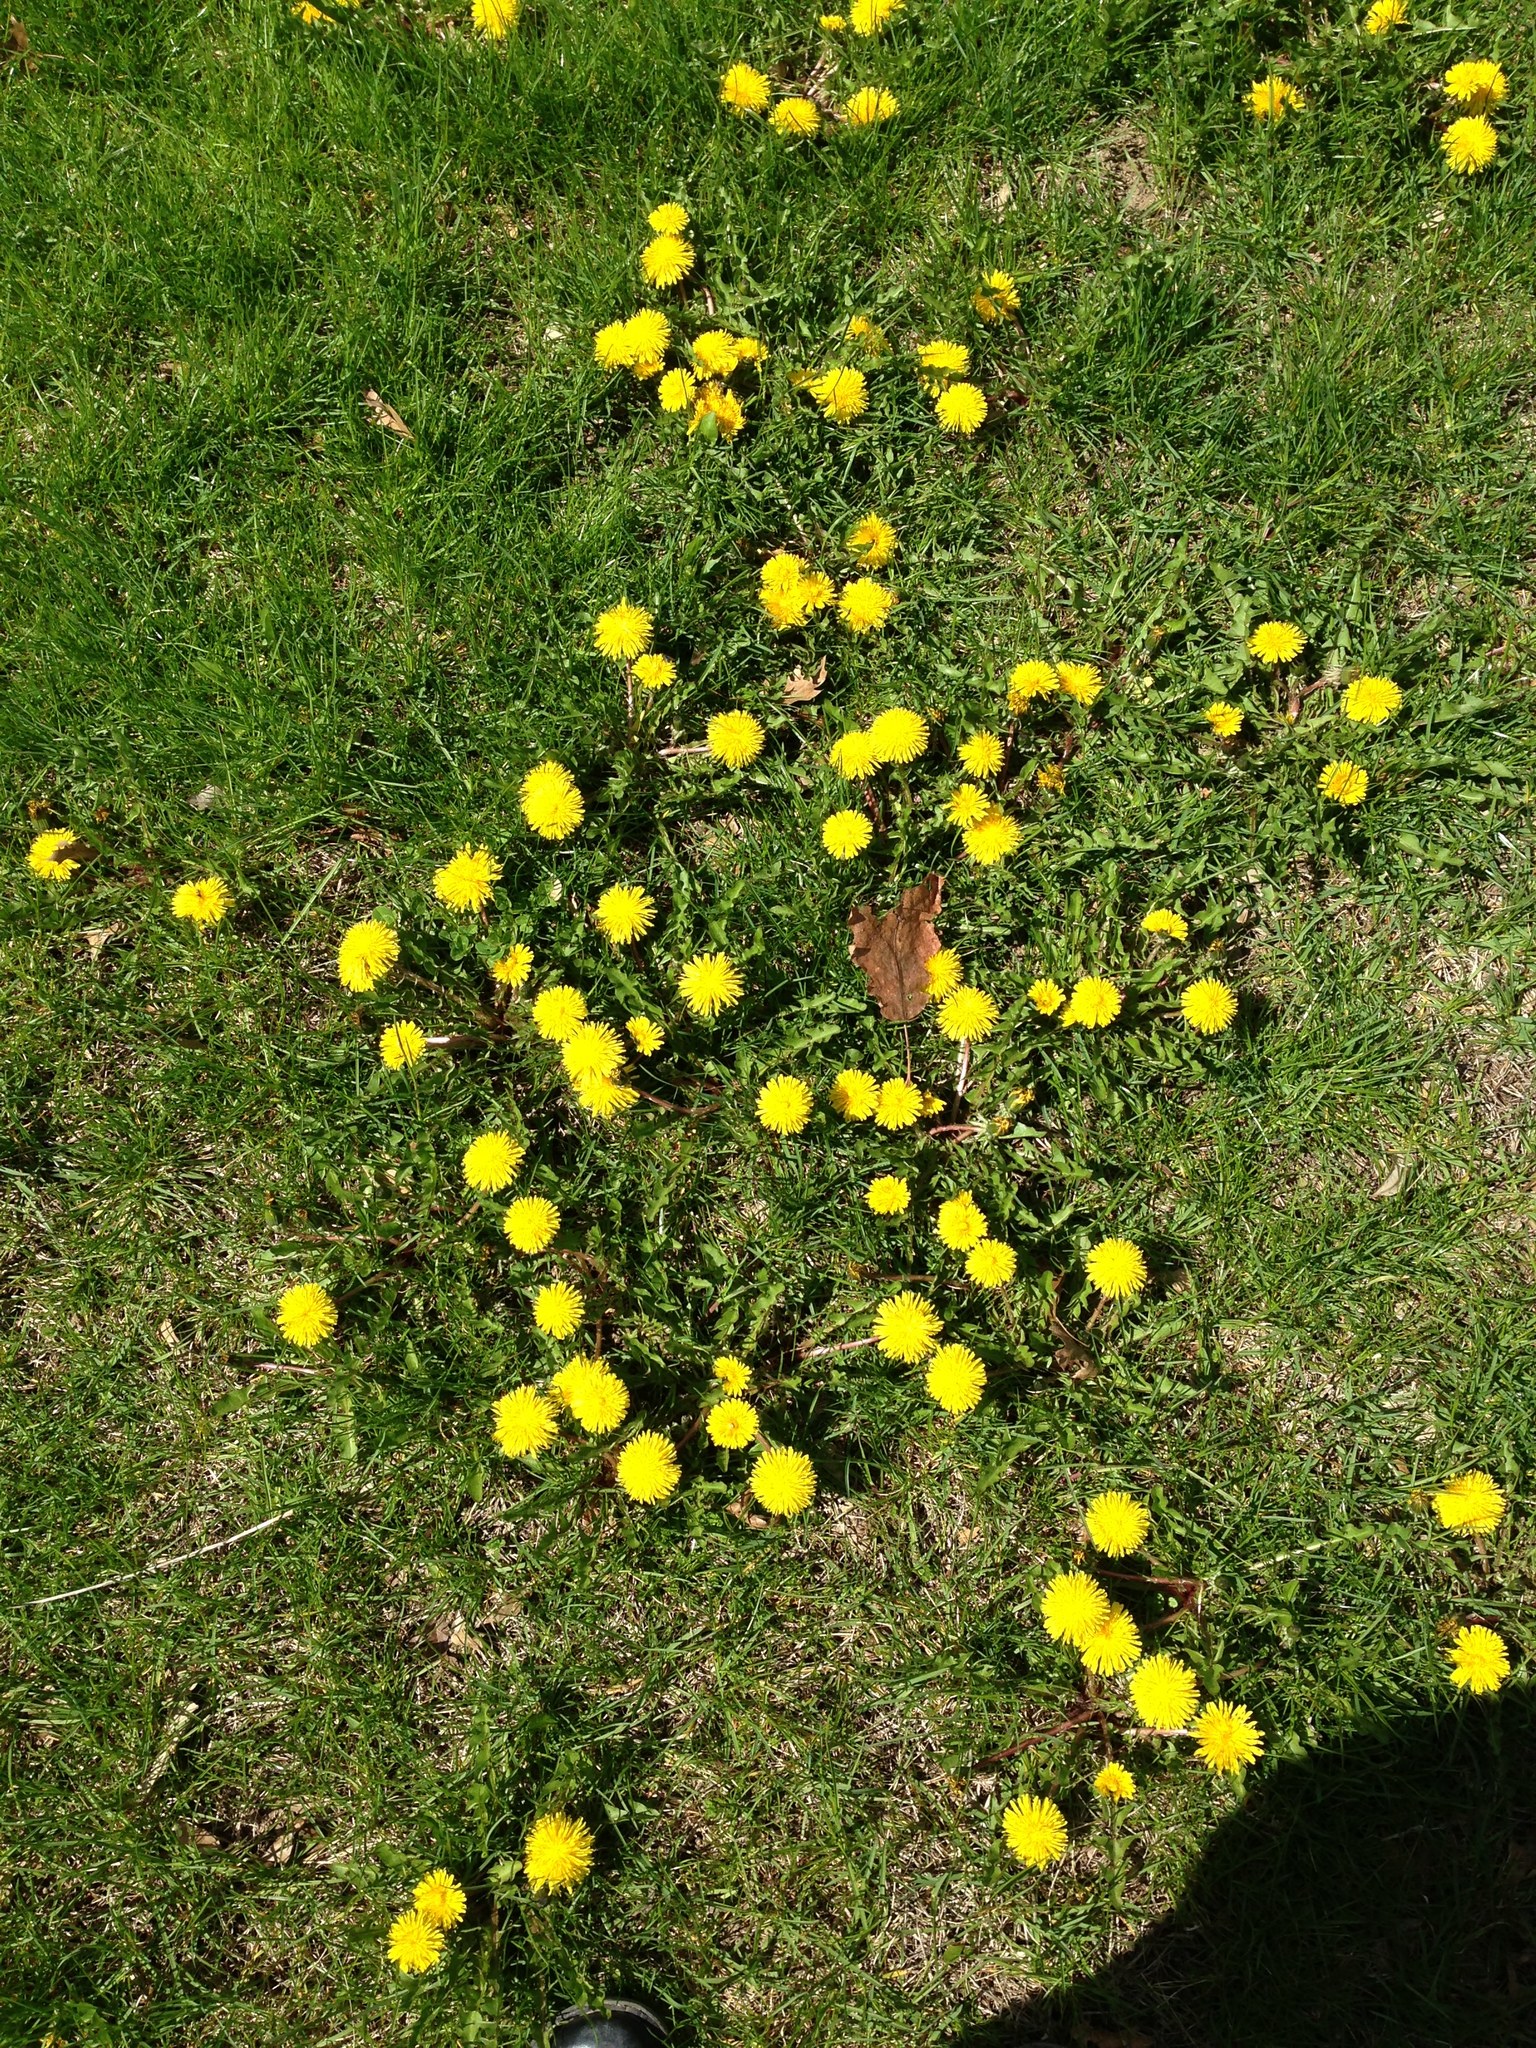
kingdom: Plantae
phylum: Tracheophyta
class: Magnoliopsida
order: Asterales
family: Asteraceae
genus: Taraxacum
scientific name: Taraxacum officinale
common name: Common dandelion
